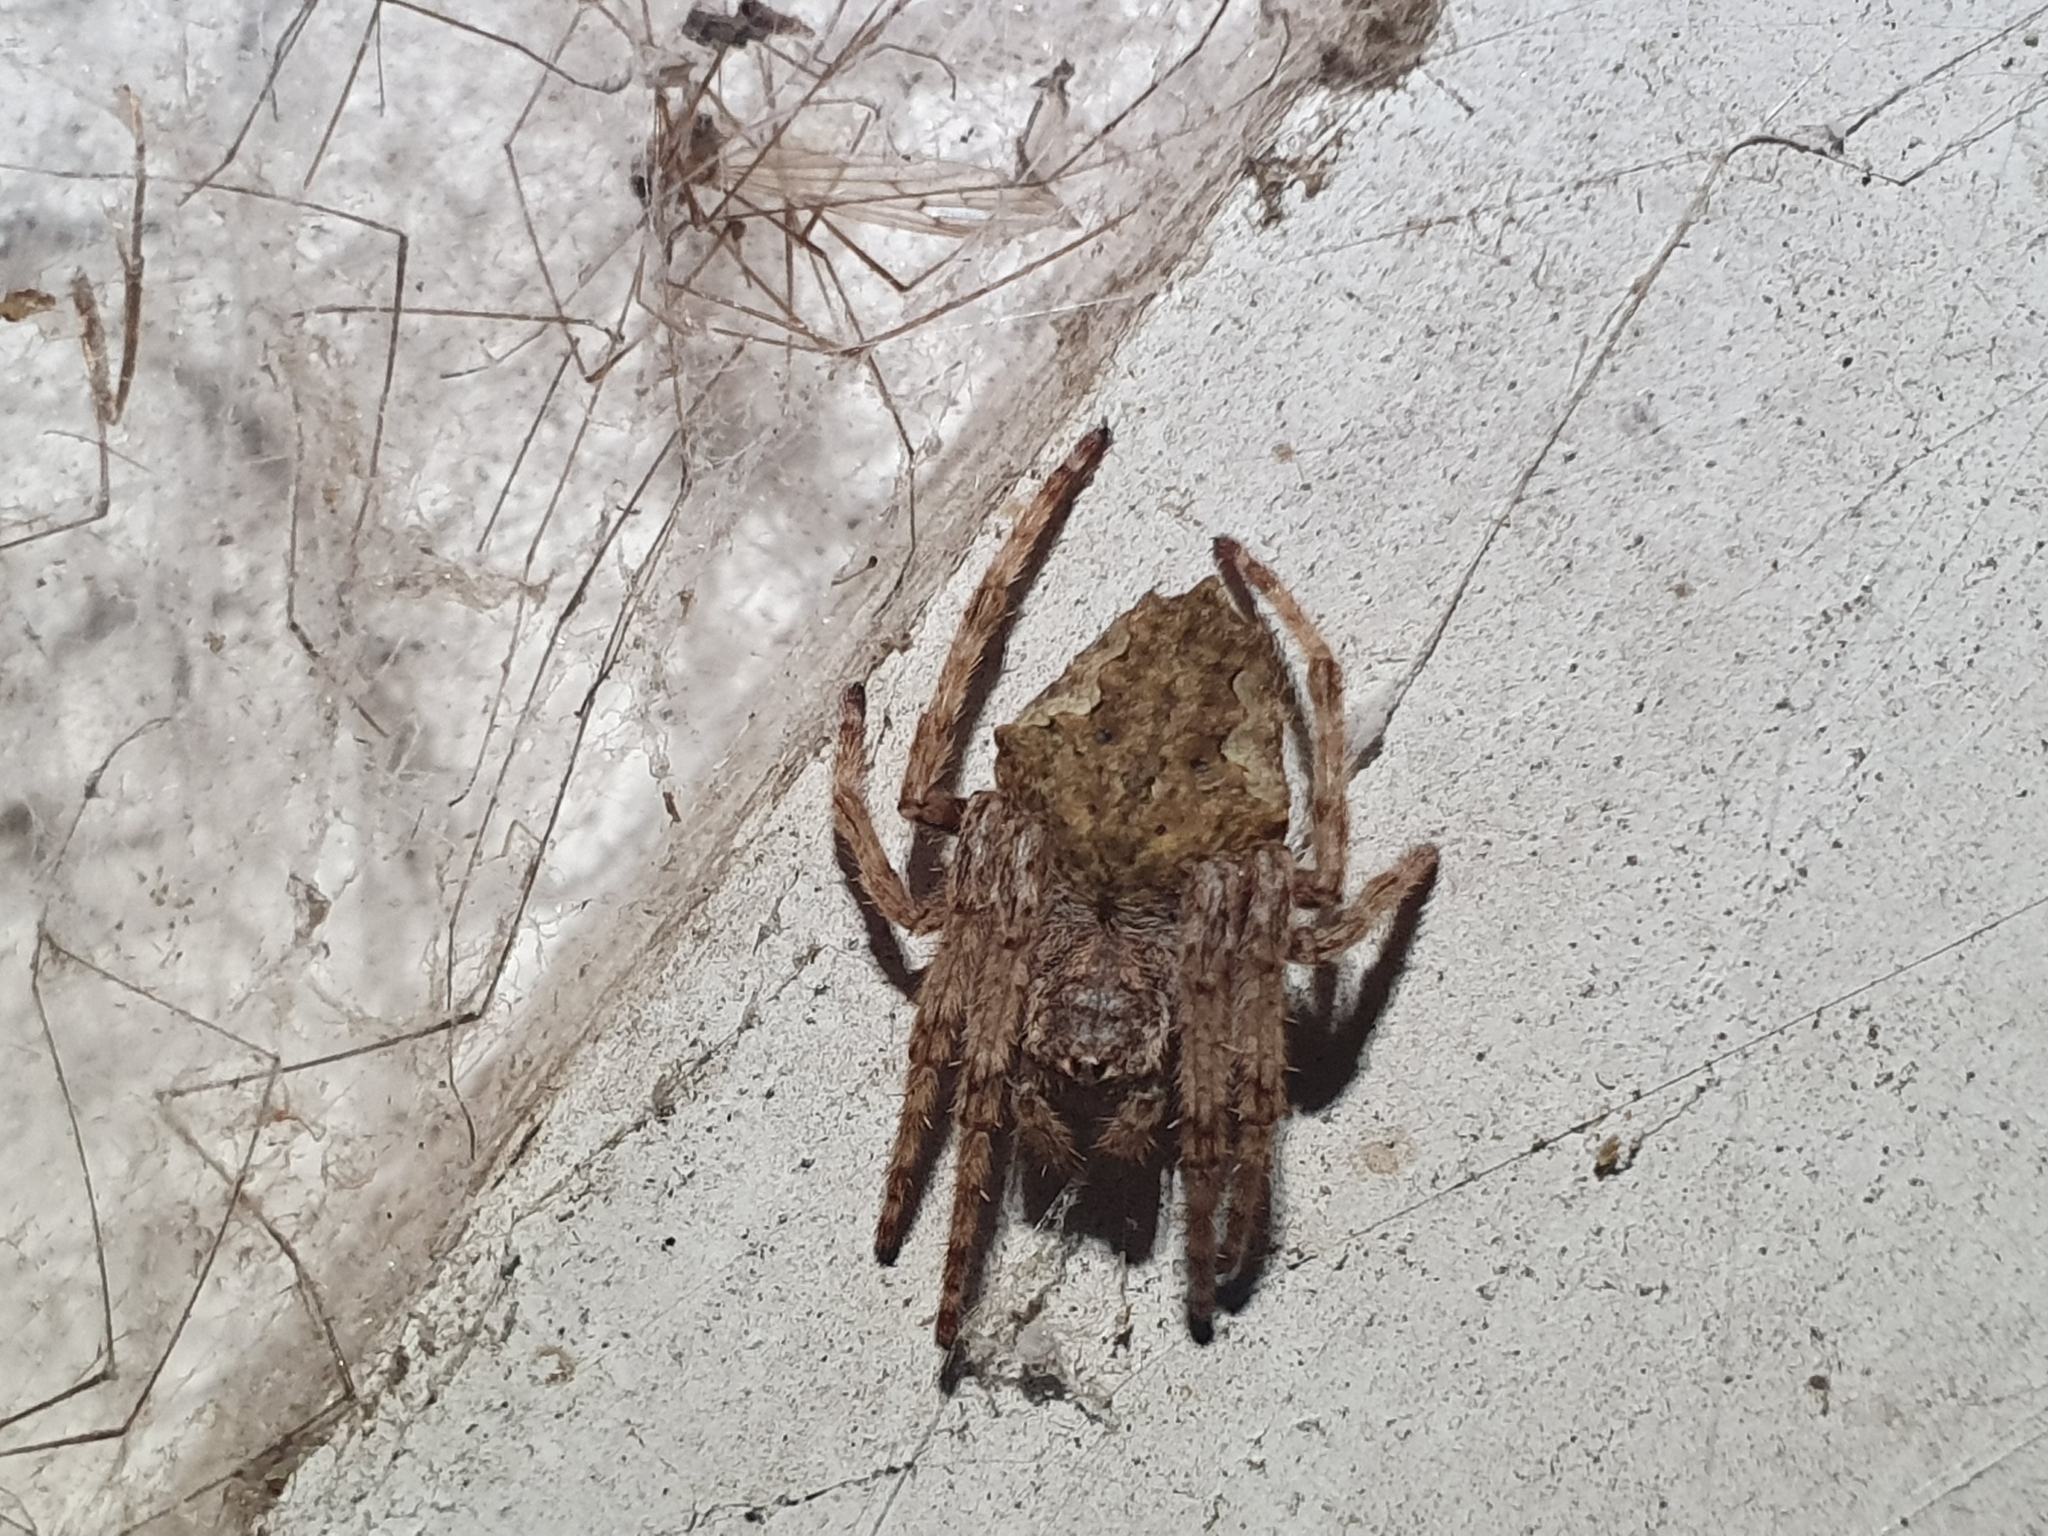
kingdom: Animalia
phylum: Arthropoda
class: Arachnida
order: Araneae
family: Araneidae
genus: Eriophora
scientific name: Eriophora pustulosa
